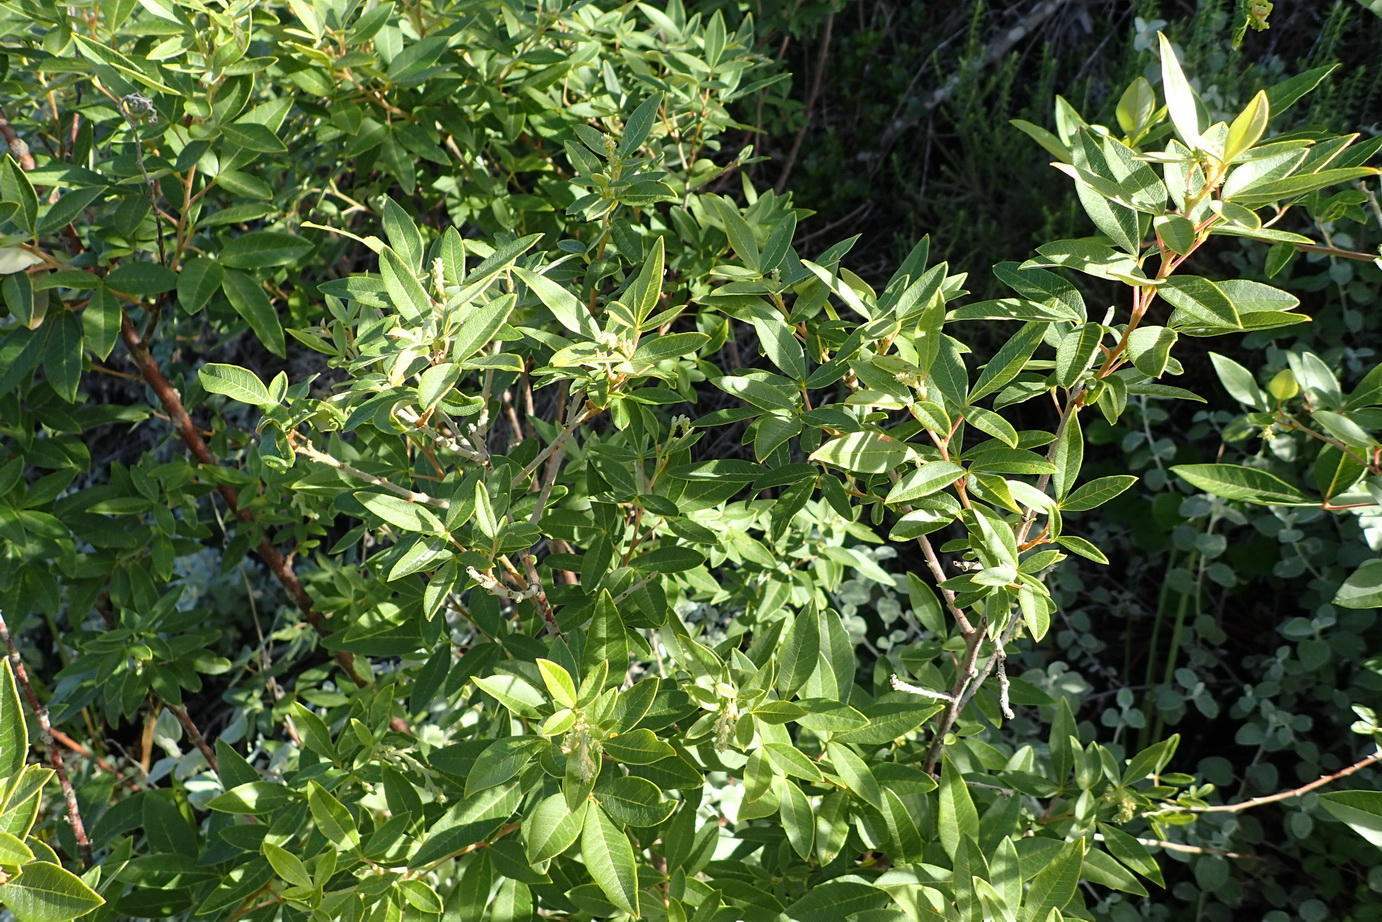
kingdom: Plantae
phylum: Tracheophyta
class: Magnoliopsida
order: Sapindales
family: Anacardiaceae
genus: Searsia
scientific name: Searsia tomentosa
